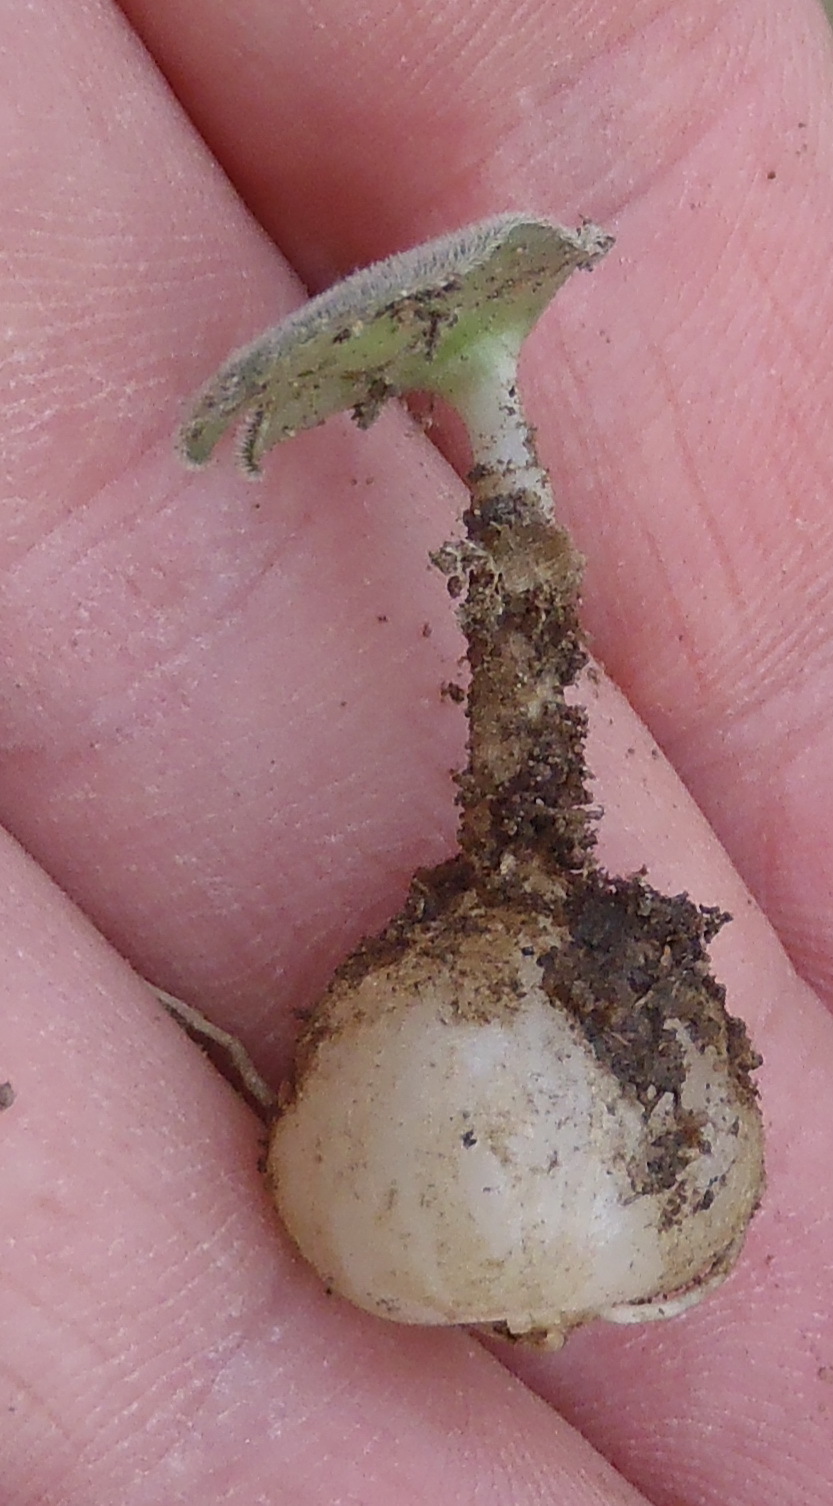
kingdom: Plantae
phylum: Tracheophyta
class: Liliopsida
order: Asparagales
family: Asparagaceae
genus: Drimia
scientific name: Drimia platyphylla
